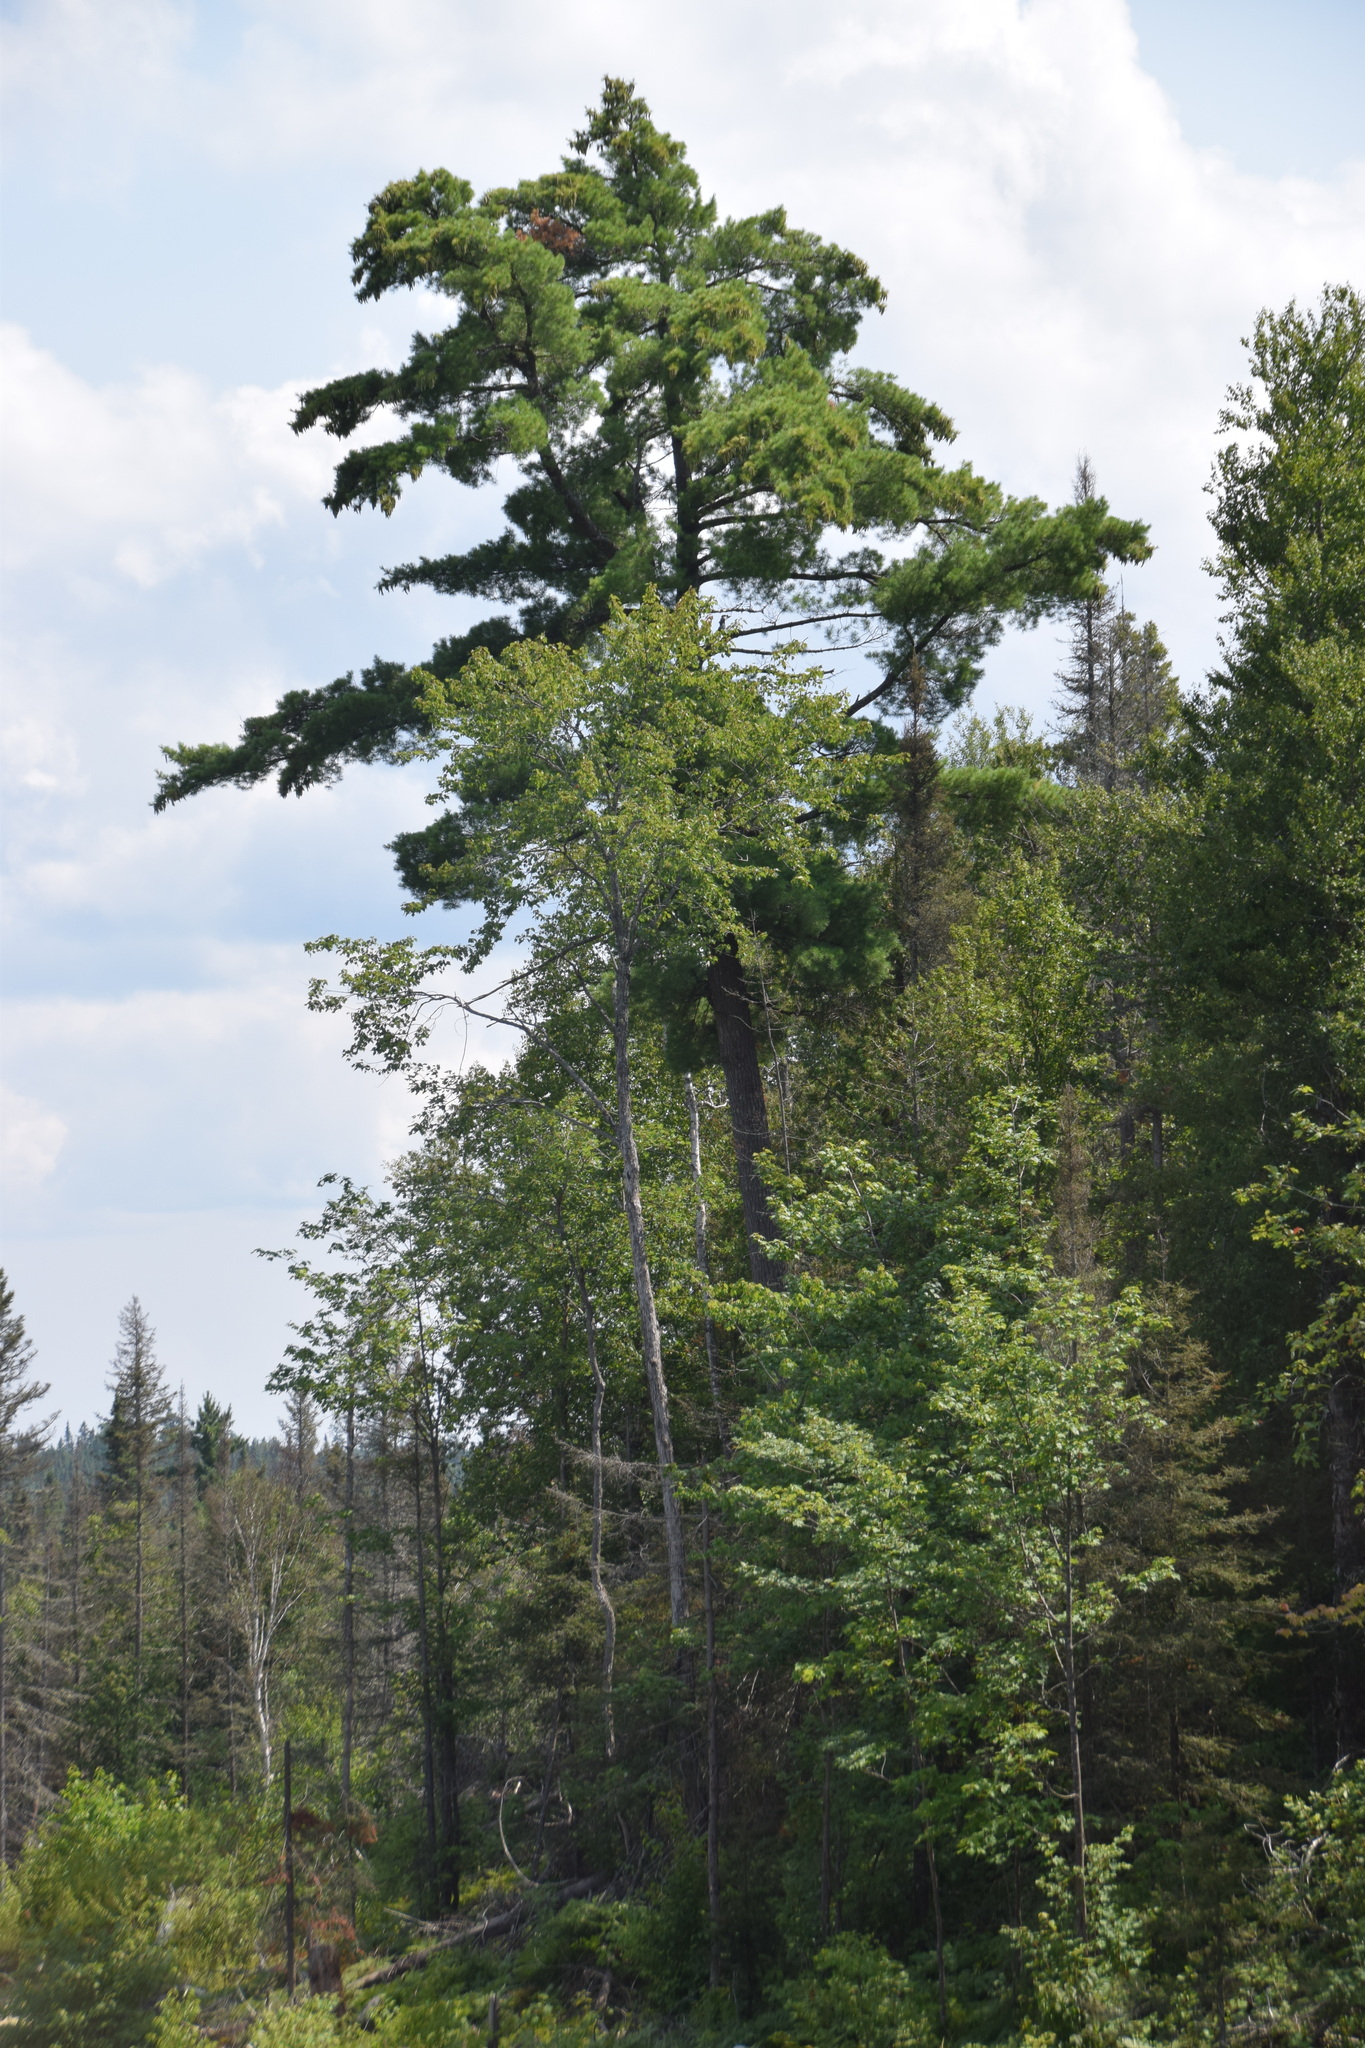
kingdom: Plantae
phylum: Tracheophyta
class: Pinopsida
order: Pinales
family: Pinaceae
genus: Pinus
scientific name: Pinus strobus
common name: Weymouth pine
